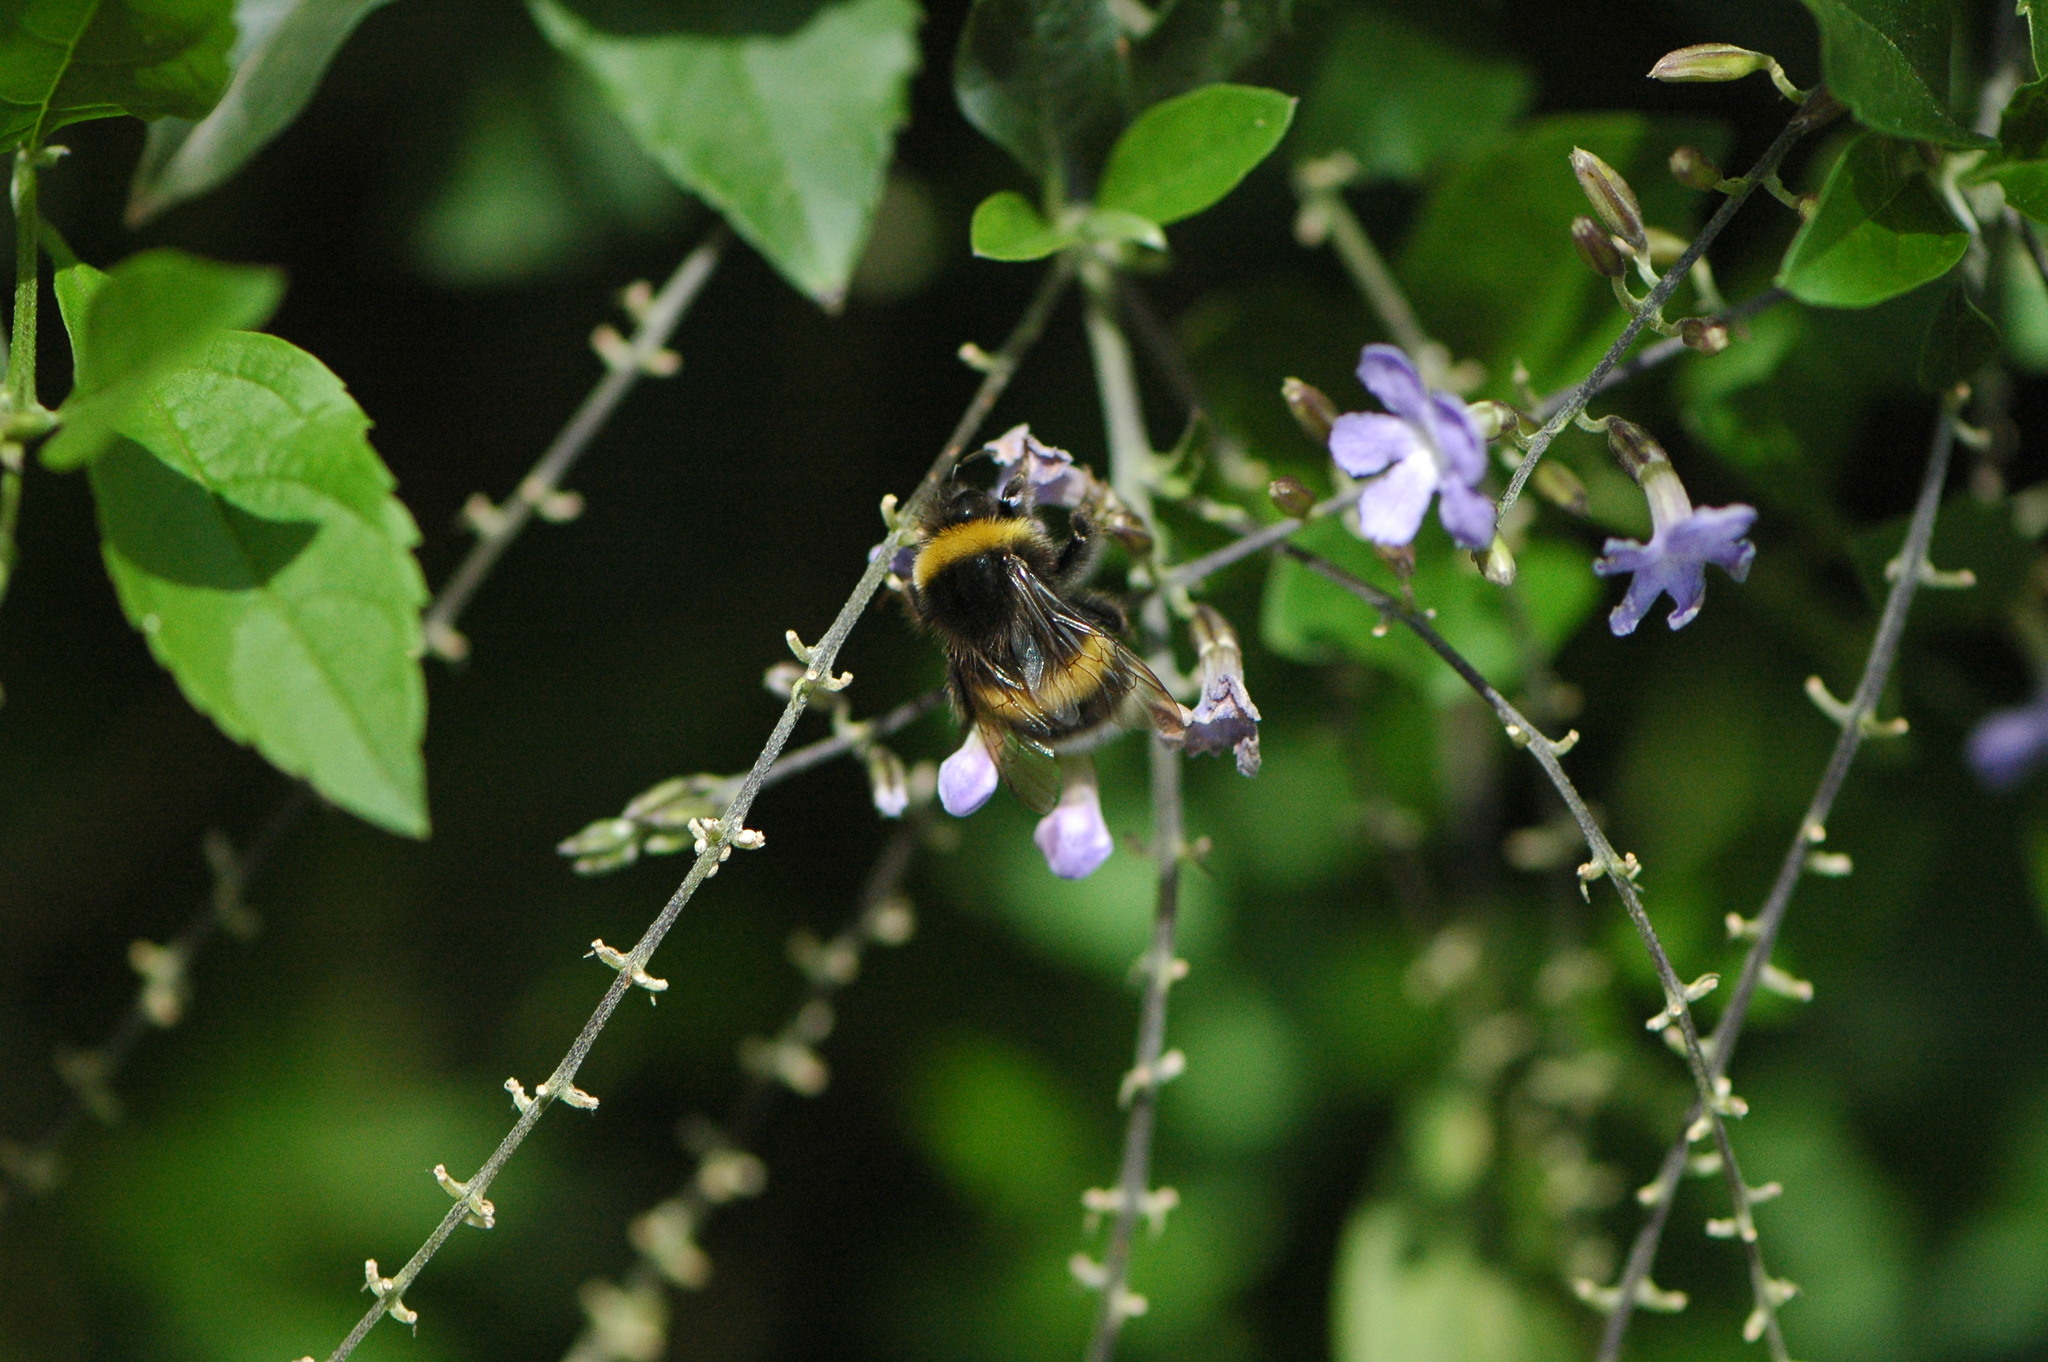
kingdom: Animalia
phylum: Arthropoda
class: Insecta
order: Hymenoptera
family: Apidae
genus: Bombus
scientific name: Bombus terrestris
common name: Buff-tailed bumblebee
